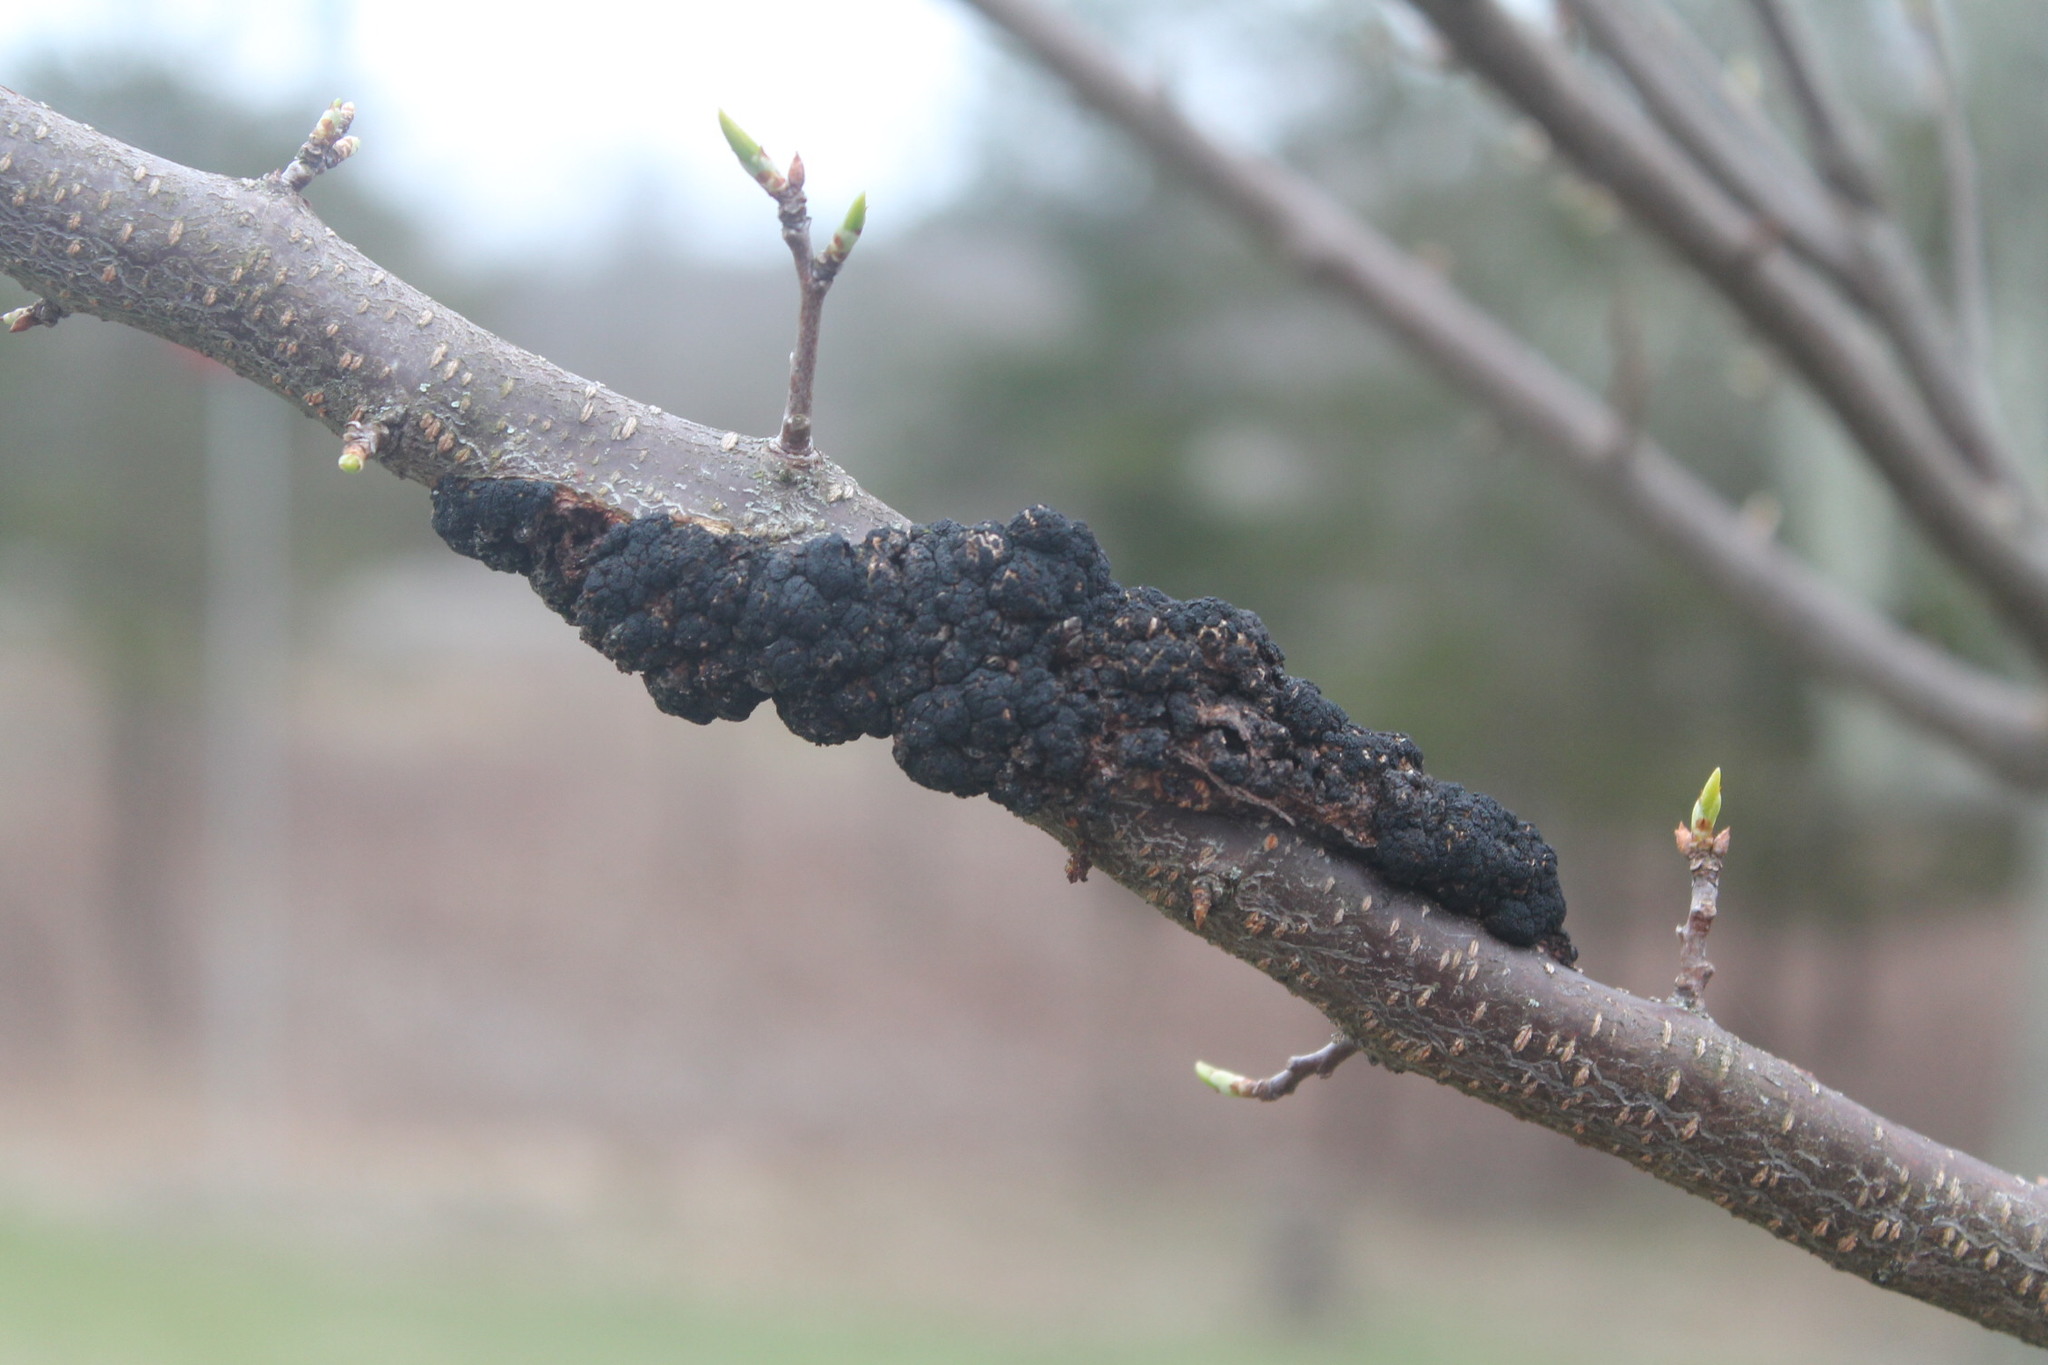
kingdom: Fungi
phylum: Ascomycota
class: Dothideomycetes
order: Venturiales
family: Venturiaceae
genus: Apiosporina
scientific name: Apiosporina morbosa
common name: Black knot
